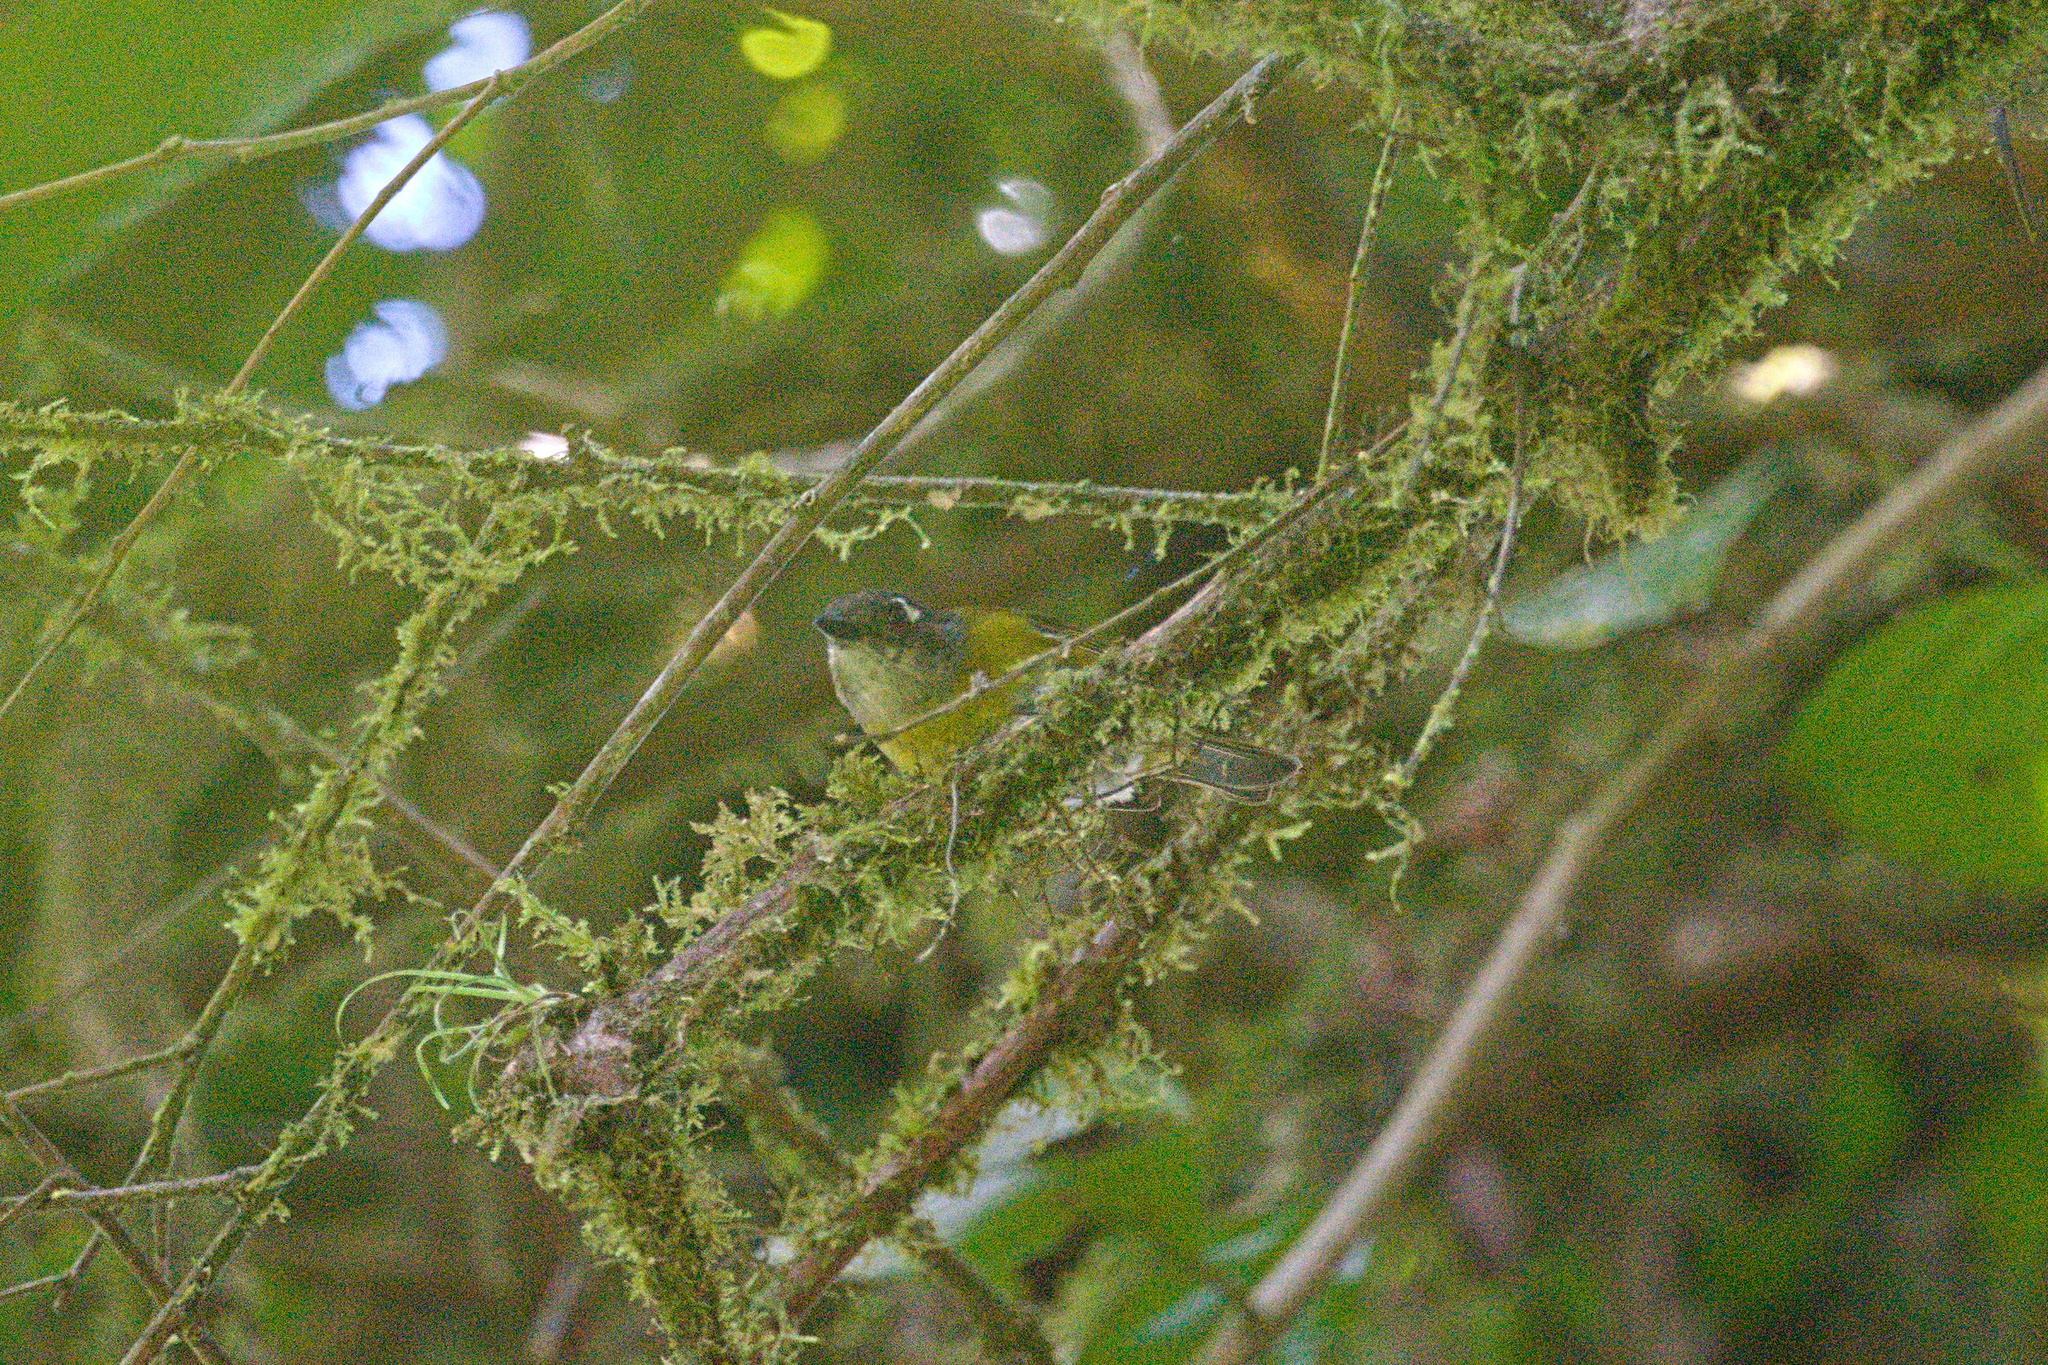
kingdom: Animalia
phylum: Chordata
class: Aves
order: Passeriformes
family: Passerellidae
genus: Chlorospingus
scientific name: Chlorospingus flavopectus
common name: Common chlorospingus
